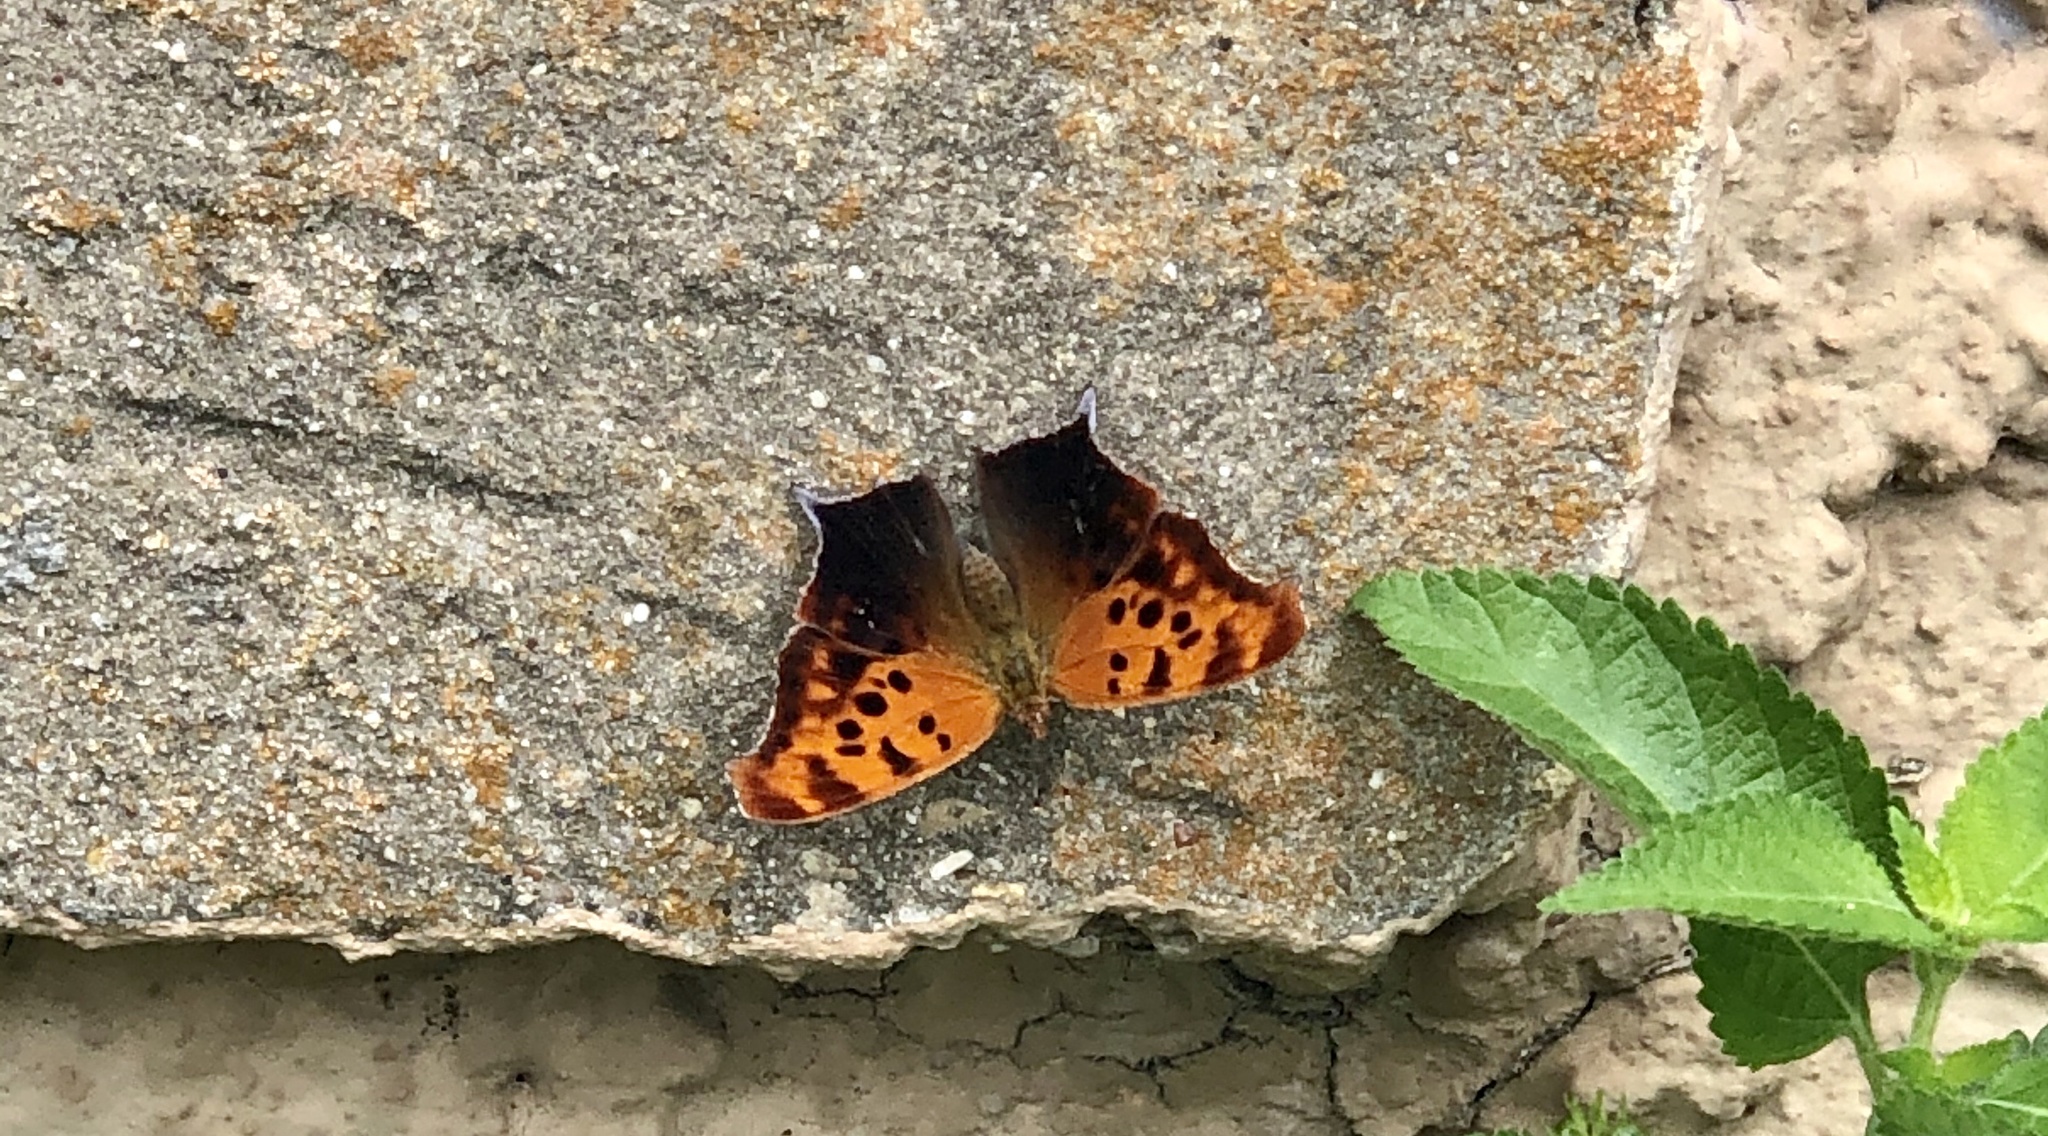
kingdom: Animalia
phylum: Arthropoda
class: Insecta
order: Lepidoptera
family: Nymphalidae
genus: Polygonia
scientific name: Polygonia interrogationis
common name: Question mark
